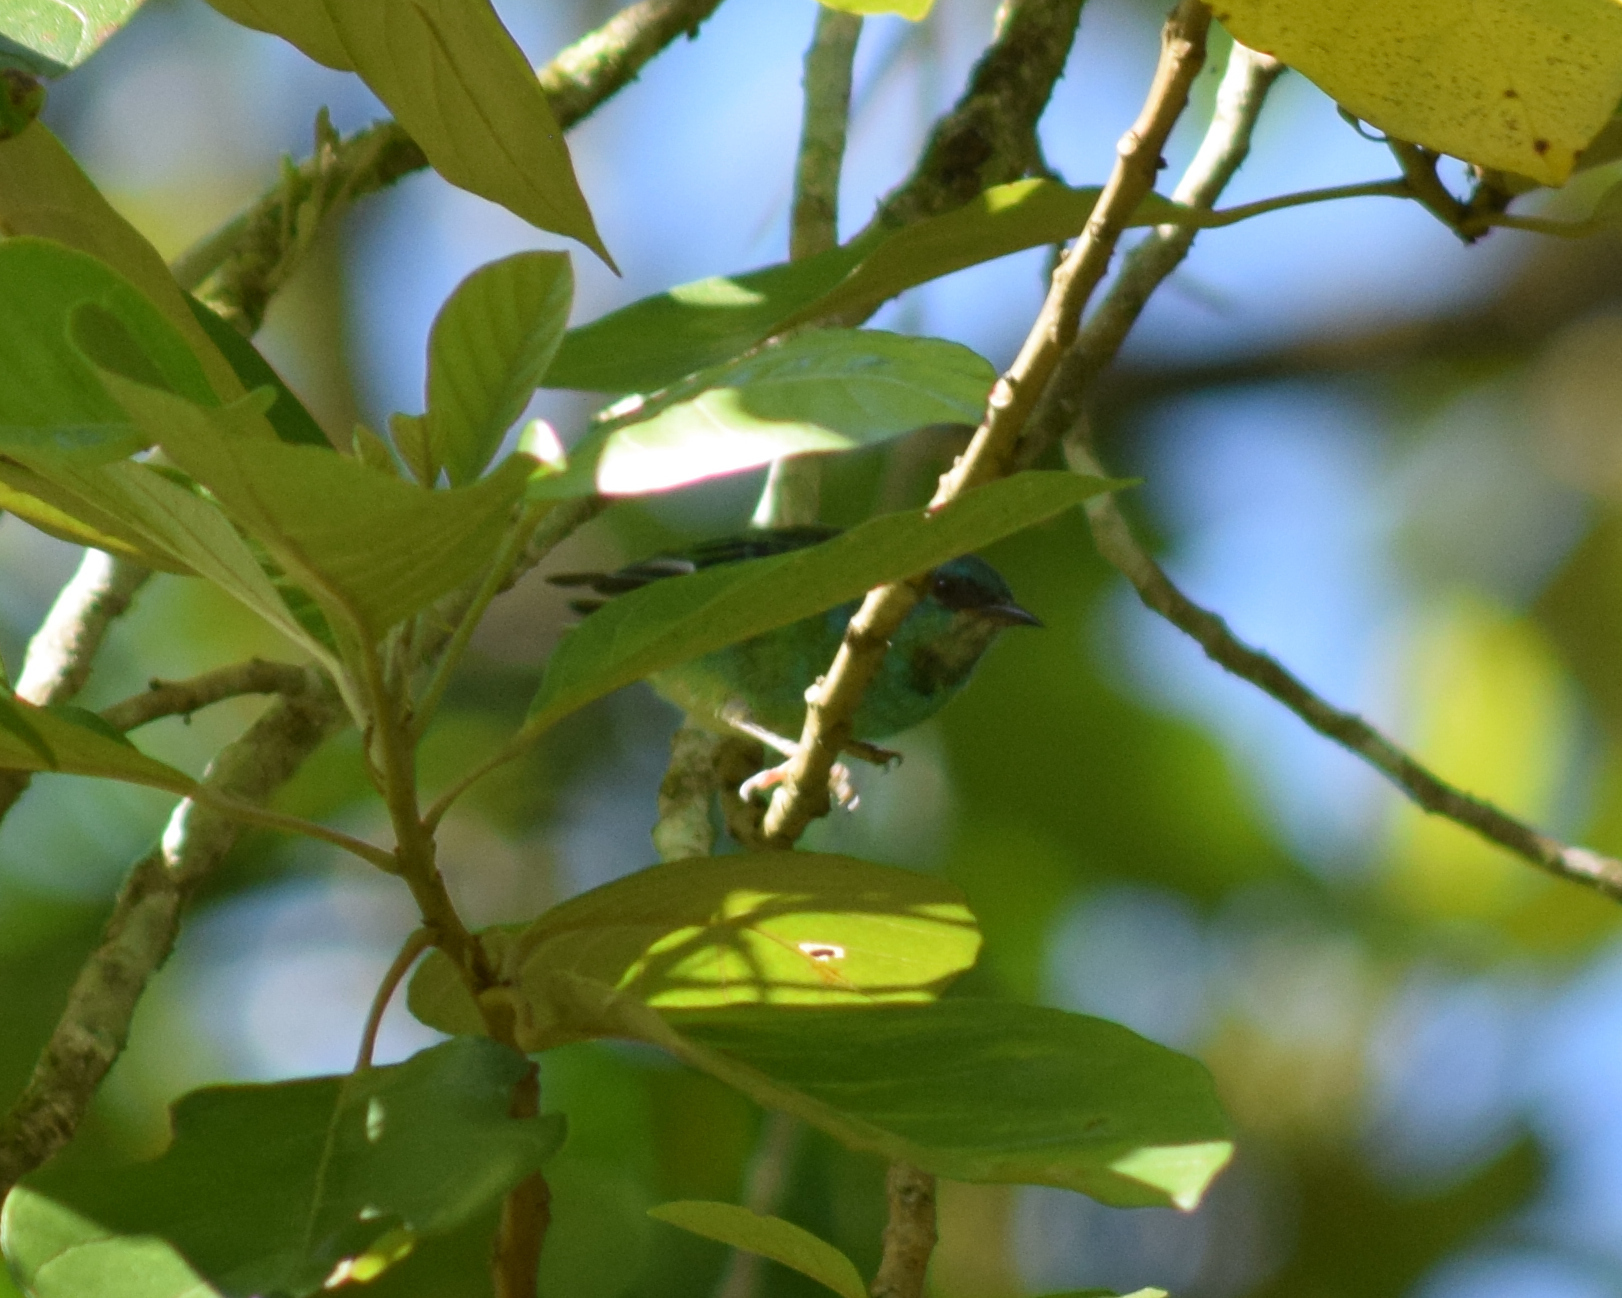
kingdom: Animalia
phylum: Chordata
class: Aves
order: Passeriformes
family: Thraupidae
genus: Dacnis
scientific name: Dacnis cayana
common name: Blue dacnis
